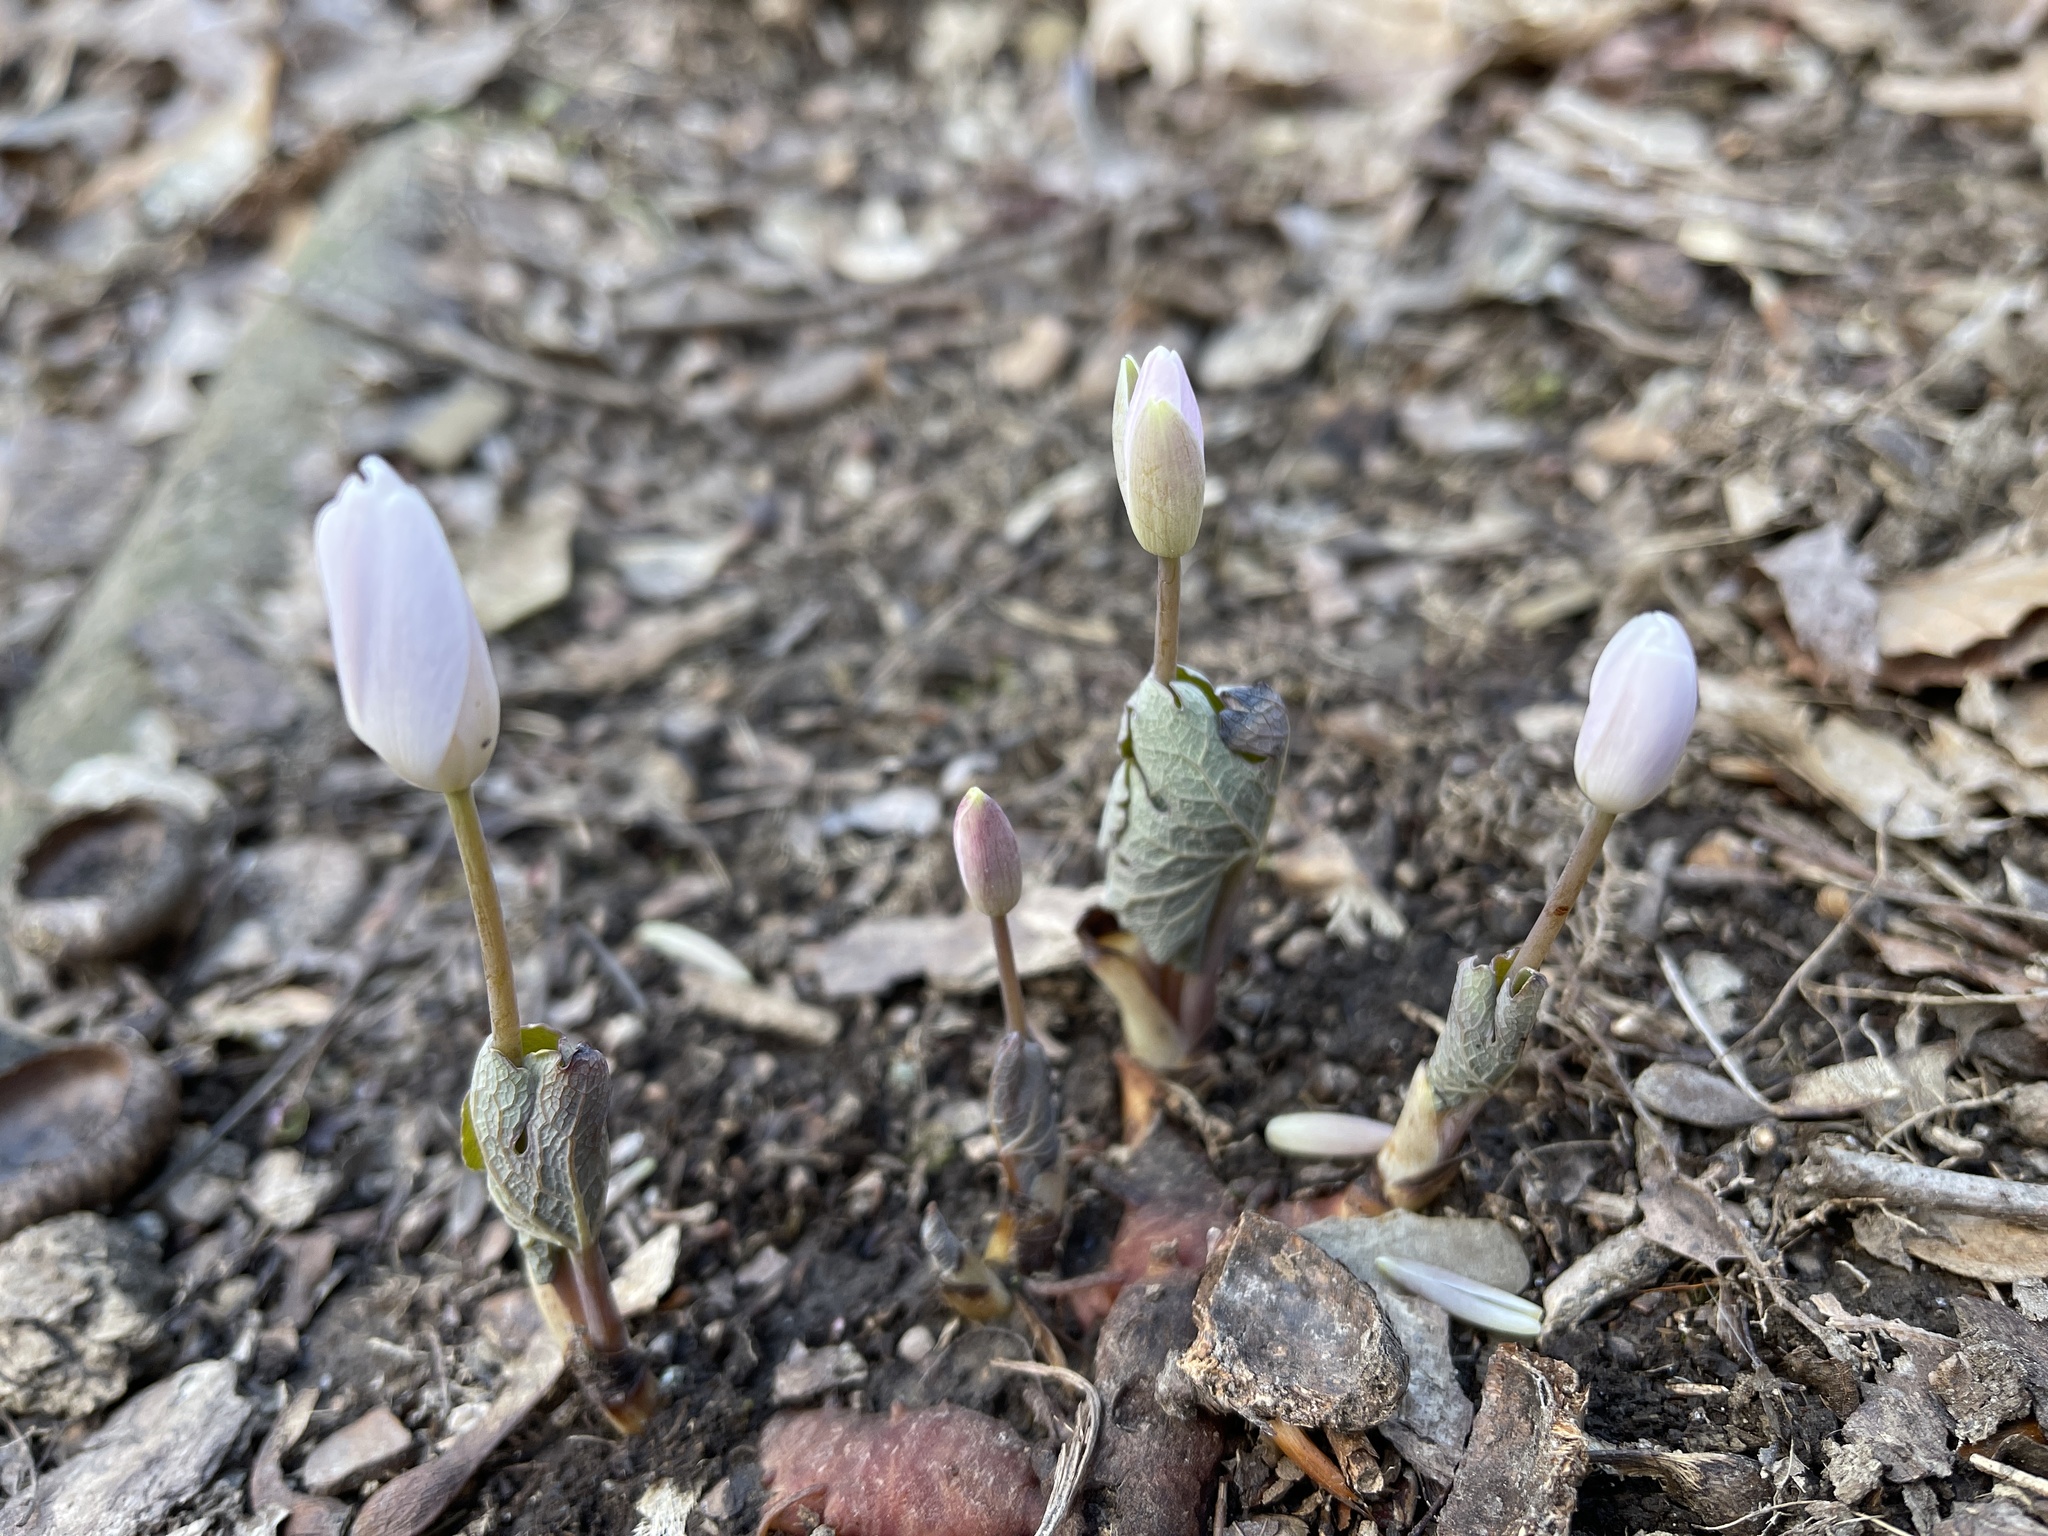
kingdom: Plantae
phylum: Tracheophyta
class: Magnoliopsida
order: Ranunculales
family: Papaveraceae
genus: Sanguinaria
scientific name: Sanguinaria canadensis
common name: Bloodroot
